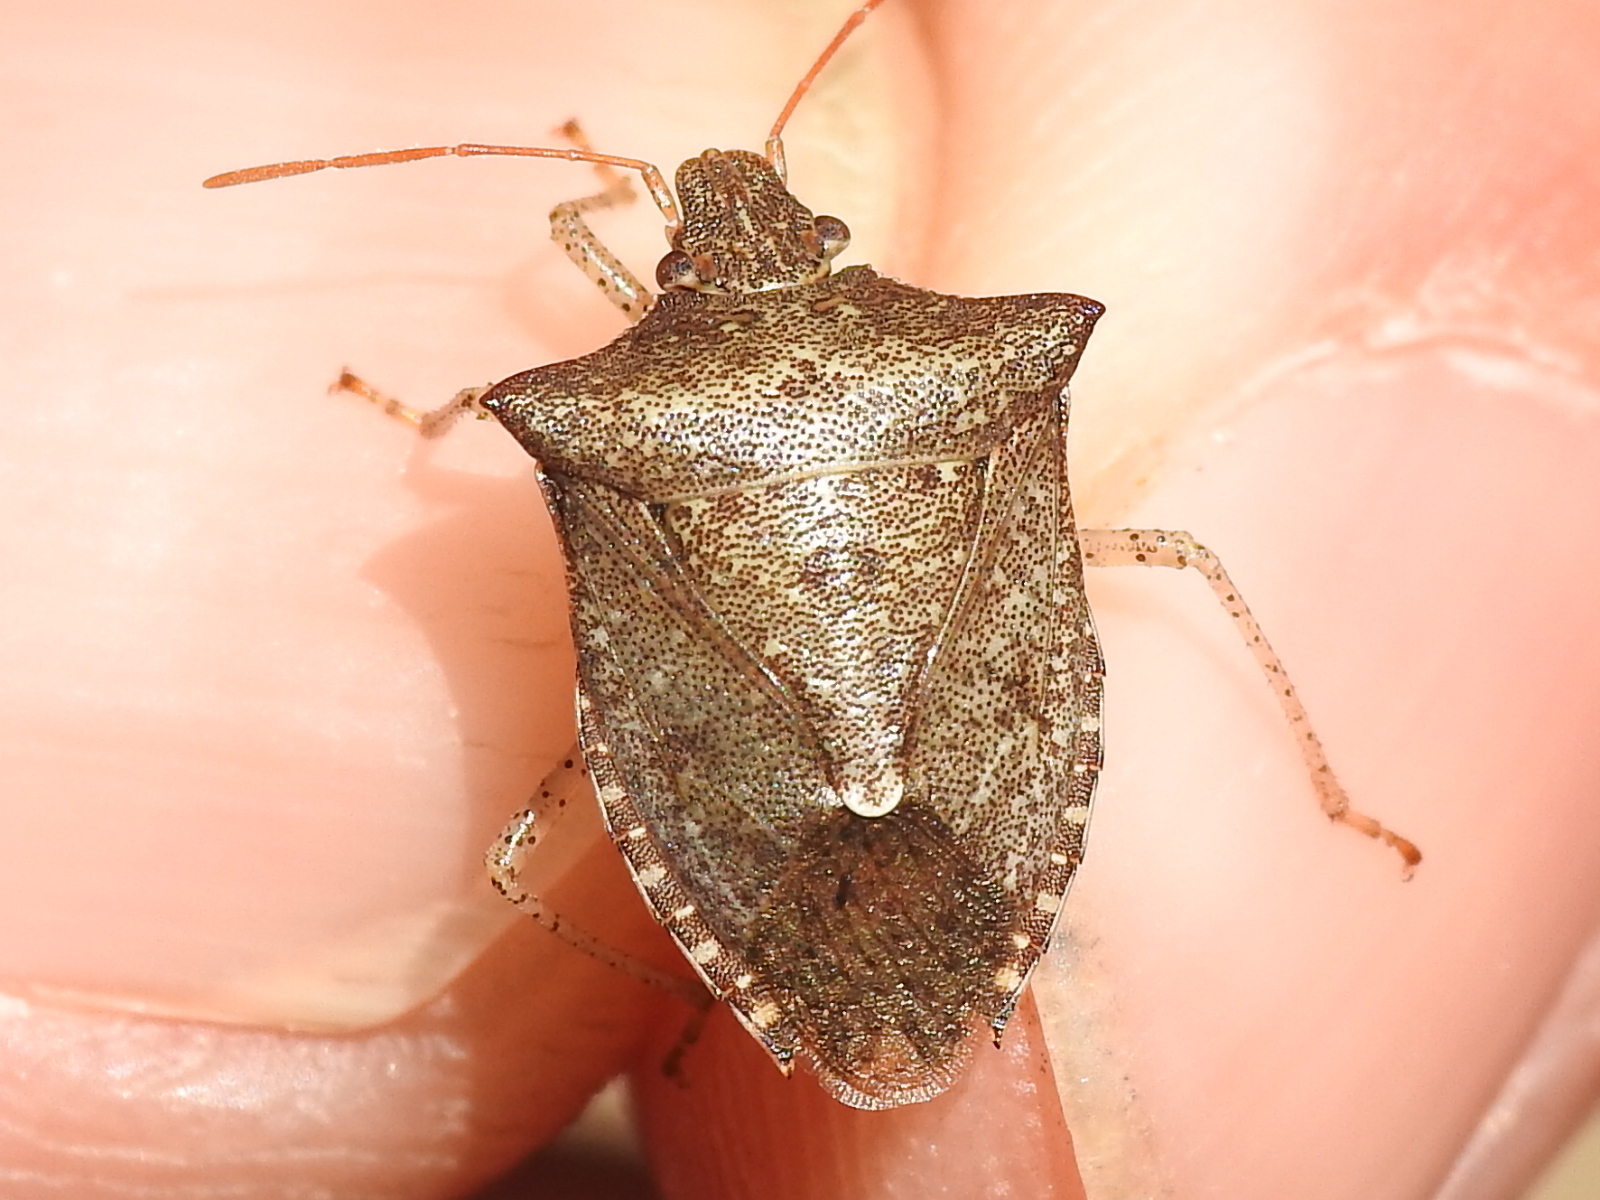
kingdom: Animalia
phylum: Arthropoda
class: Insecta
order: Hemiptera
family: Pentatomidae
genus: Euschistus
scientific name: Euschistus tristigmus
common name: Dusky stink bug
